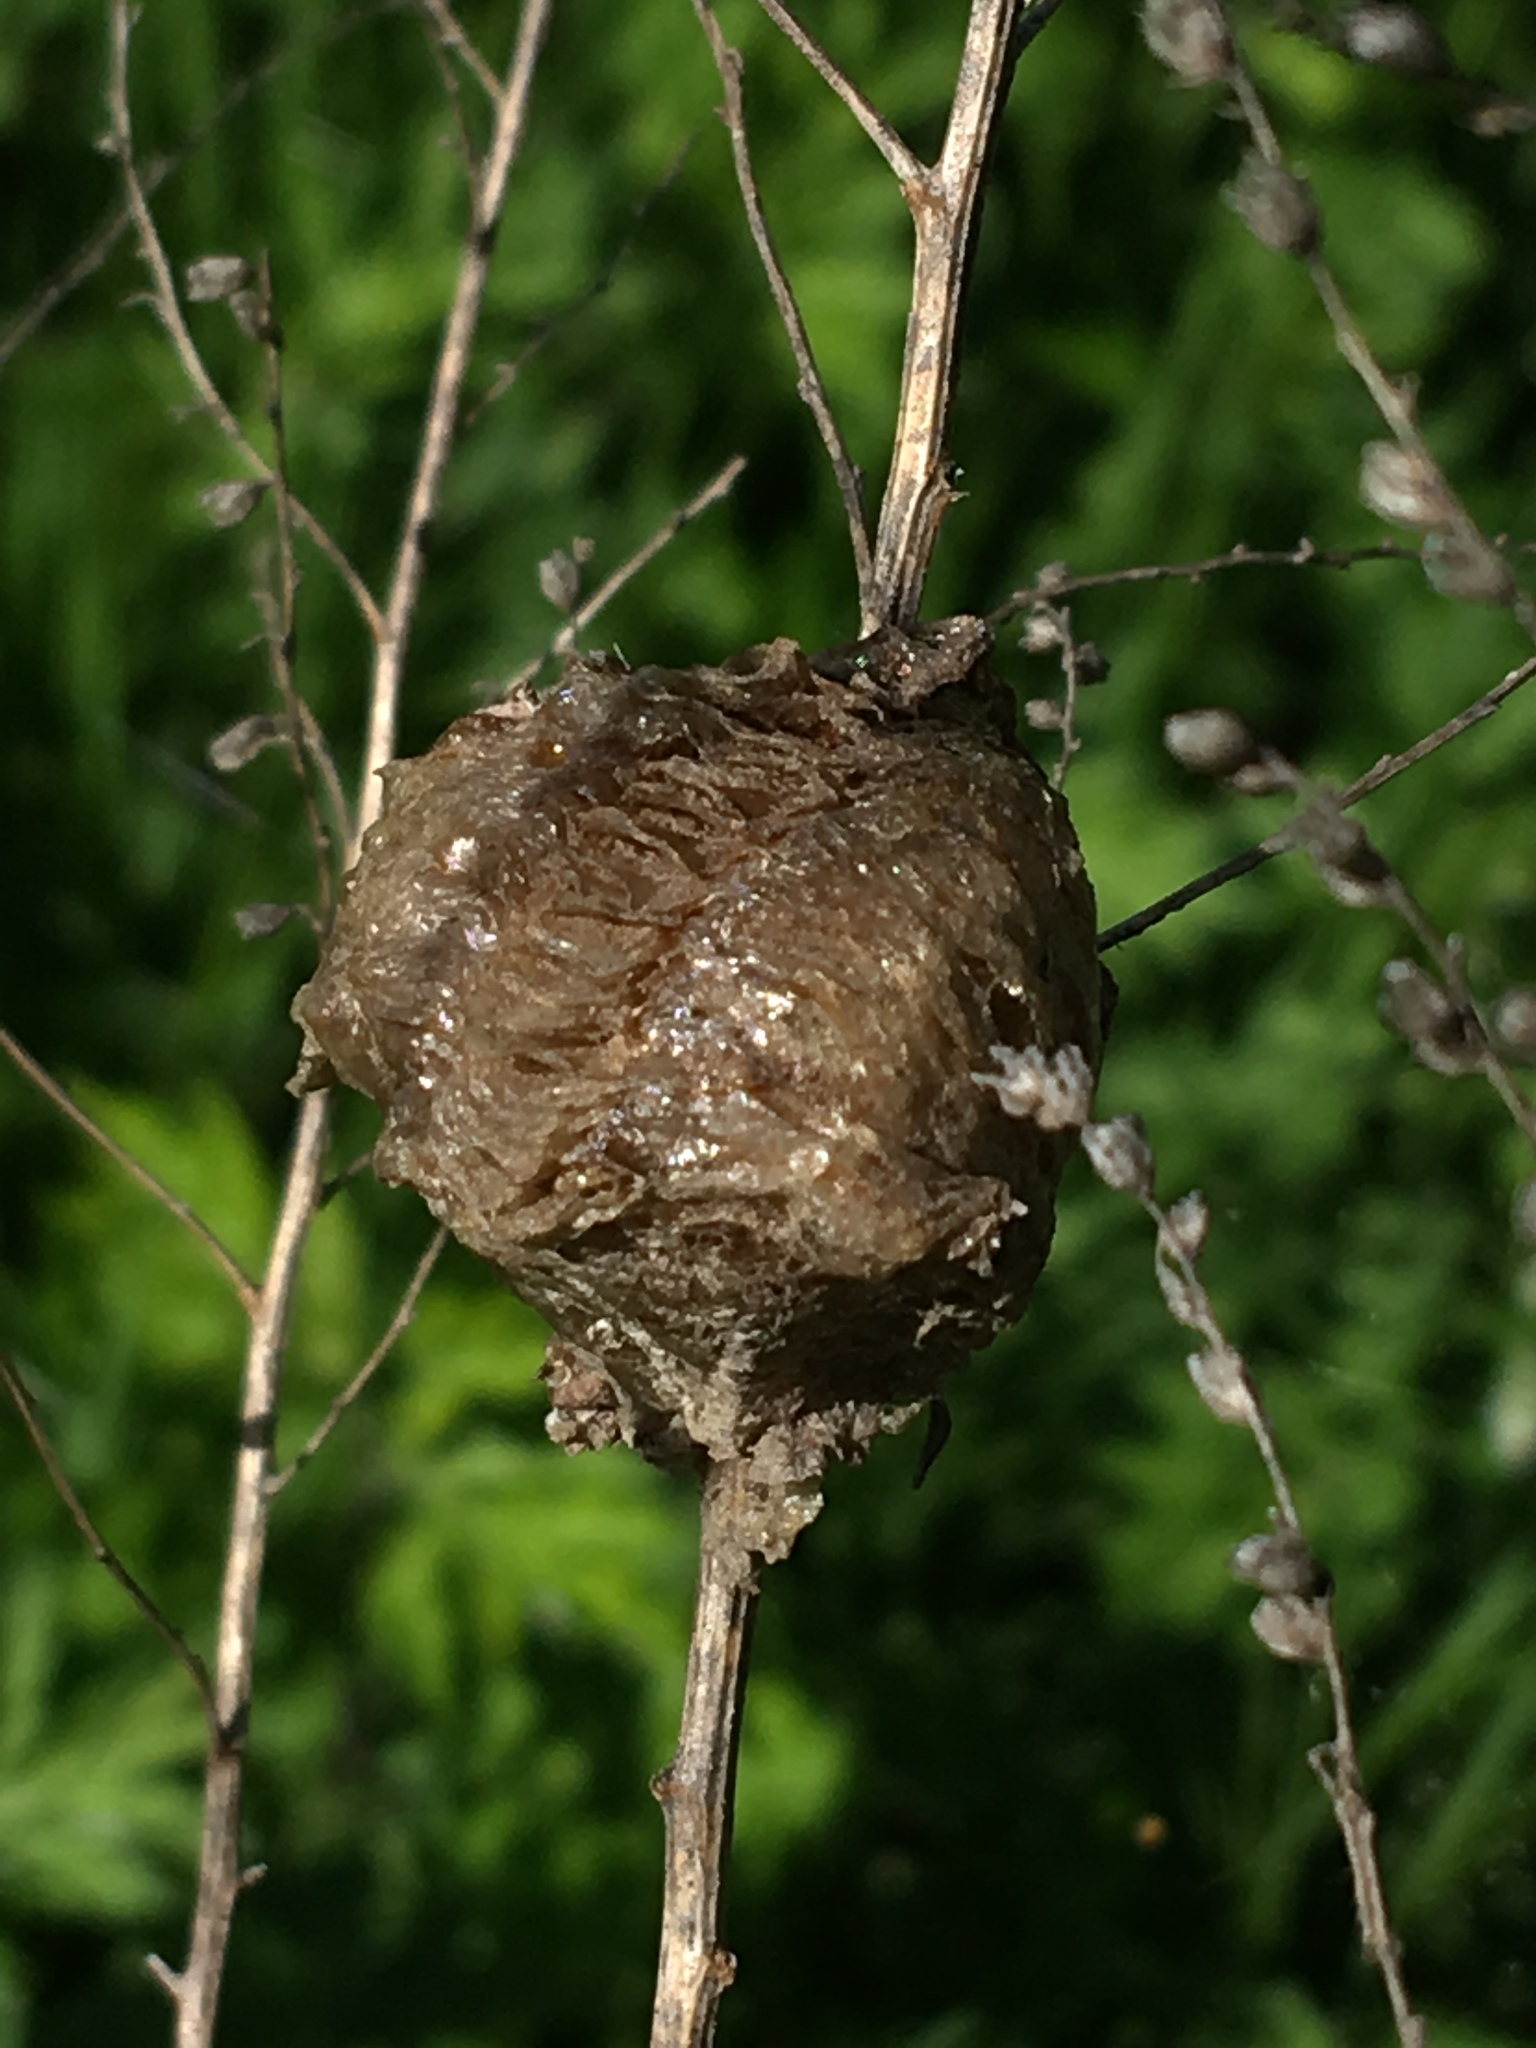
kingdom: Animalia
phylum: Arthropoda
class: Insecta
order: Mantodea
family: Mantidae
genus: Tenodera
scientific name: Tenodera sinensis
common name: Chinese mantis
